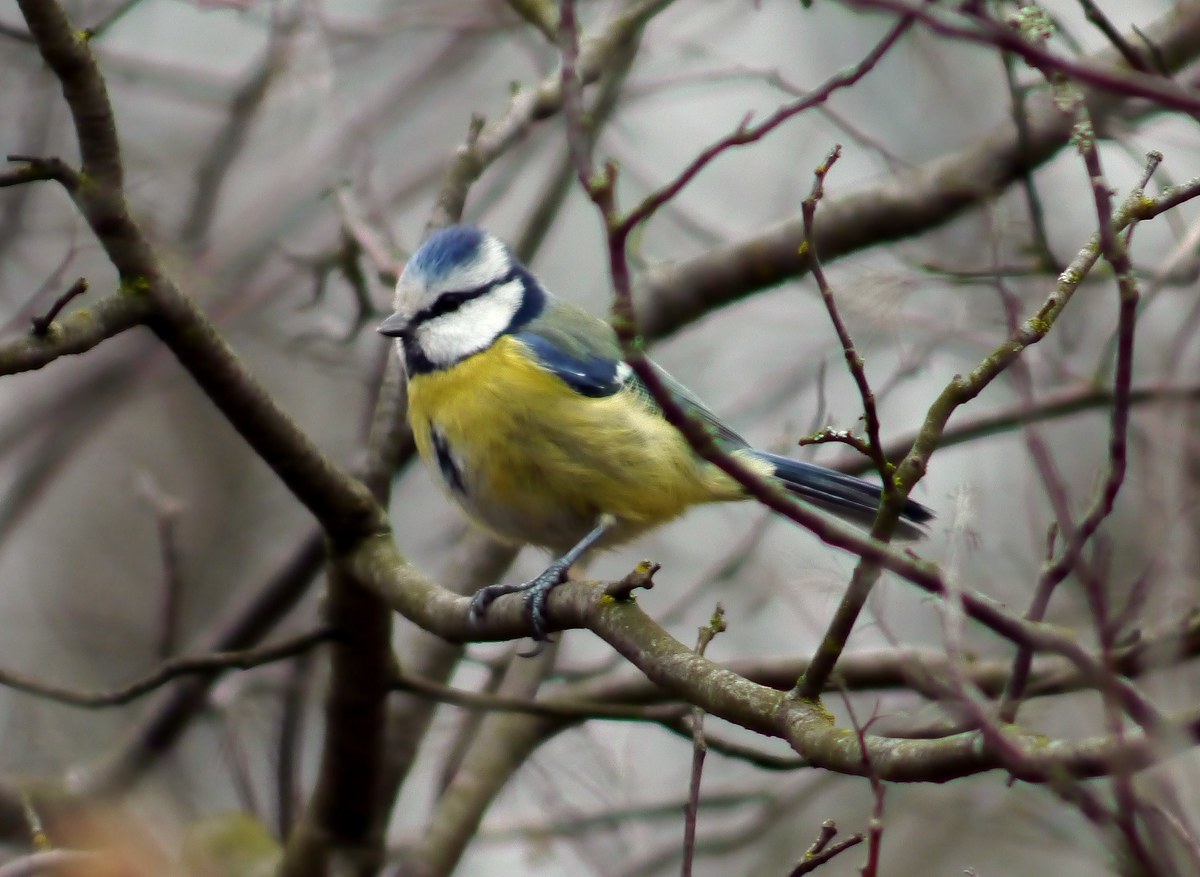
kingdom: Animalia
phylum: Chordata
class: Aves
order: Passeriformes
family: Paridae
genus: Cyanistes
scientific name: Cyanistes caeruleus
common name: Eurasian blue tit
